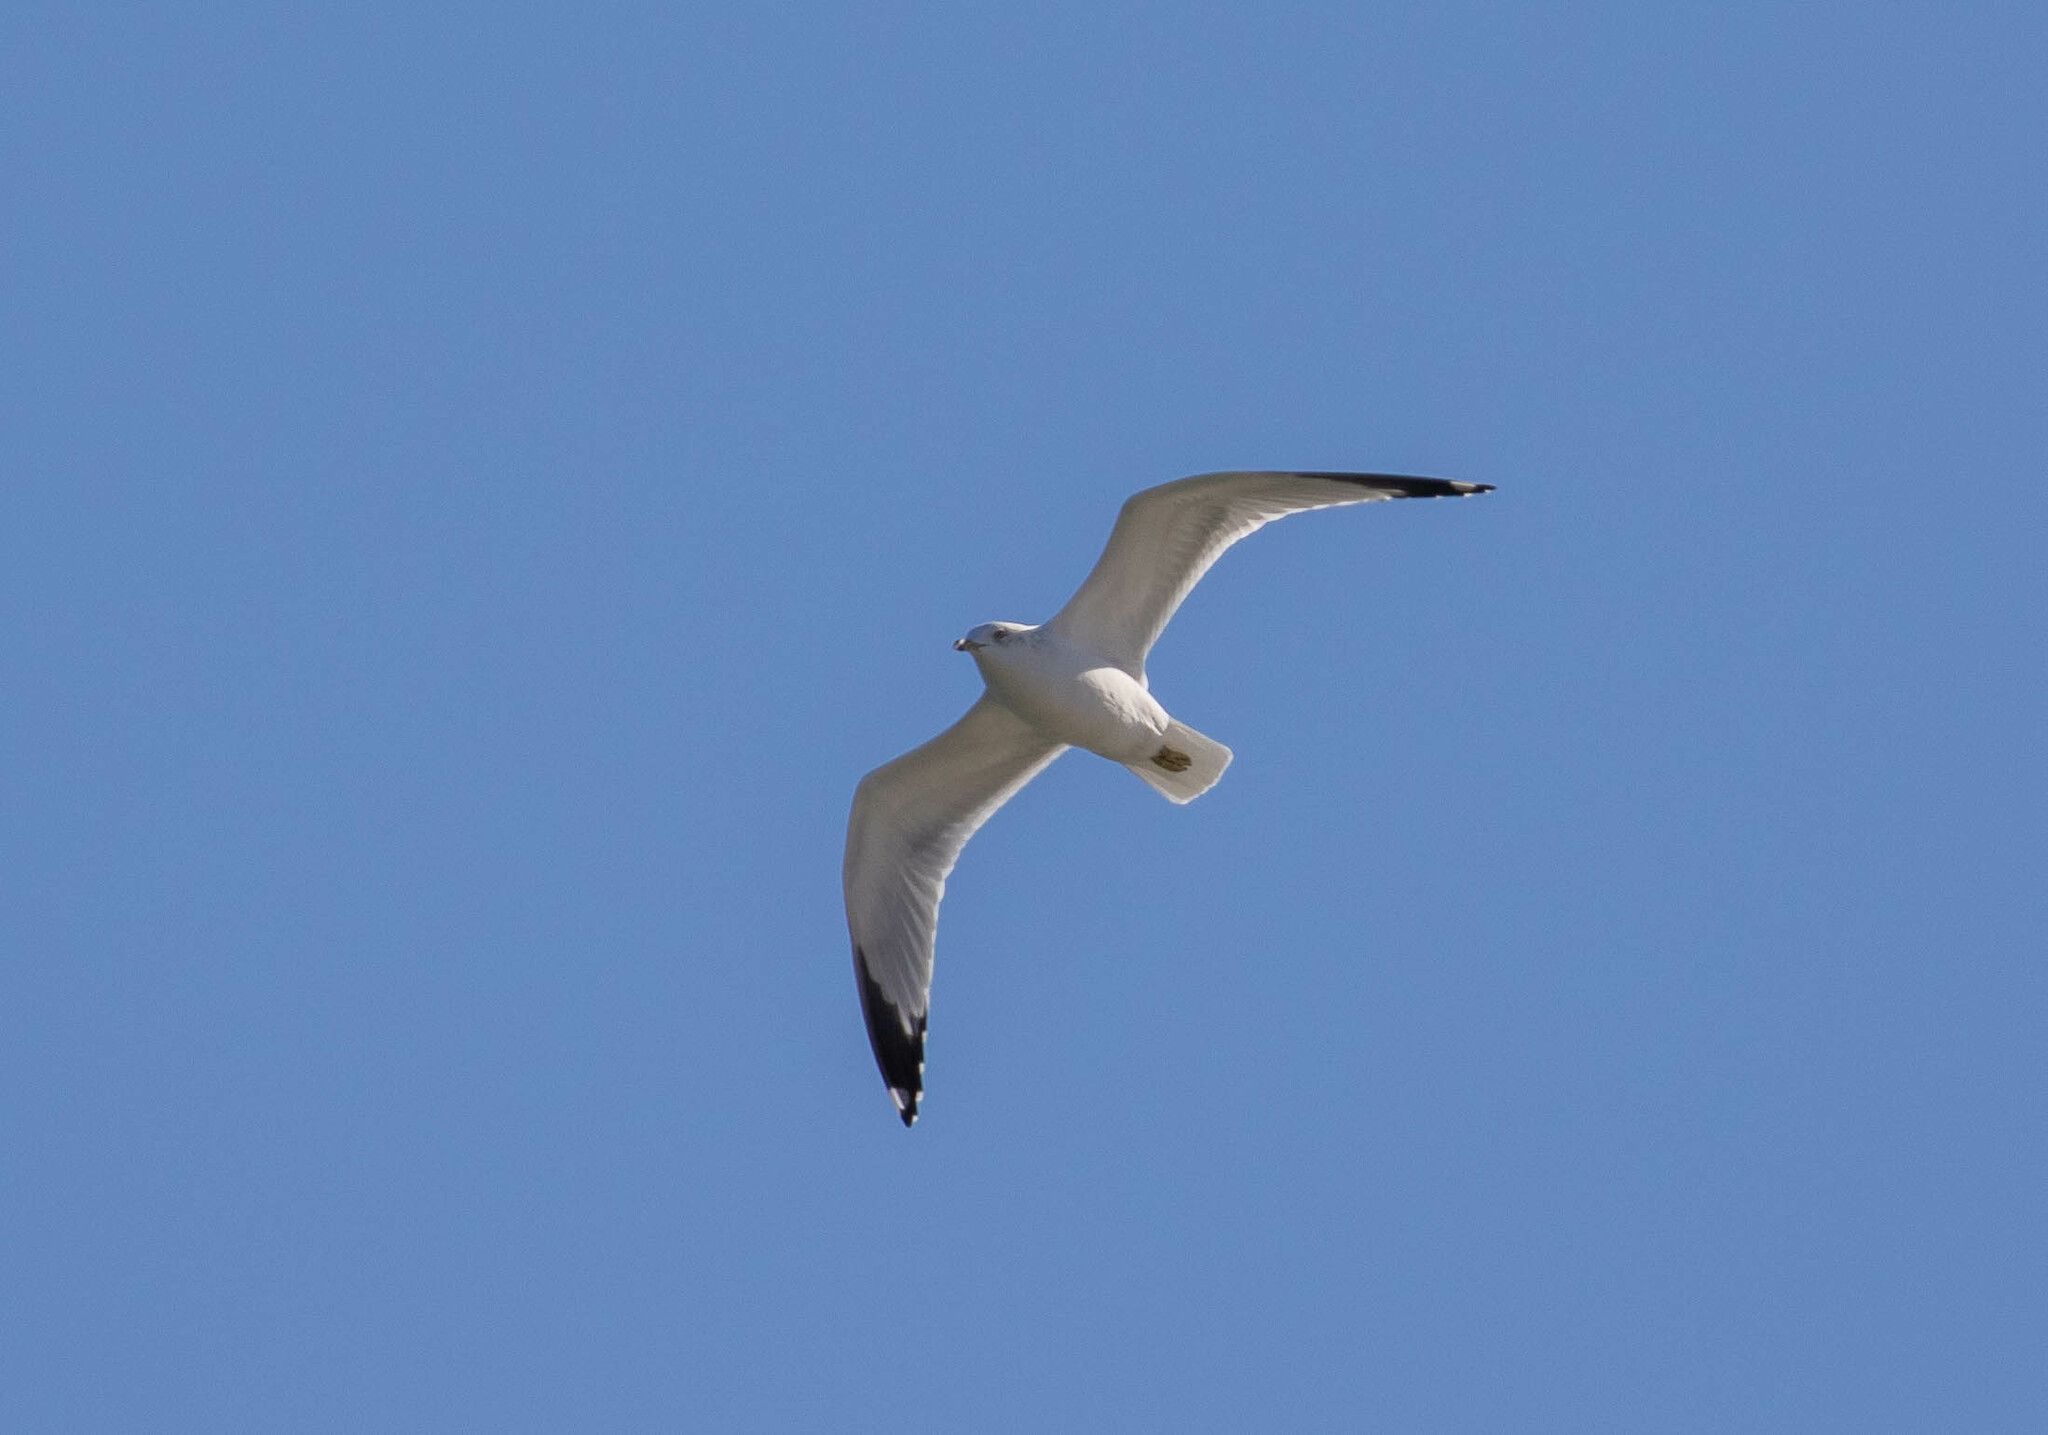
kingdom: Animalia
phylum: Chordata
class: Aves
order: Charadriiformes
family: Laridae
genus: Larus
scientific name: Larus delawarensis
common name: Ring-billed gull
